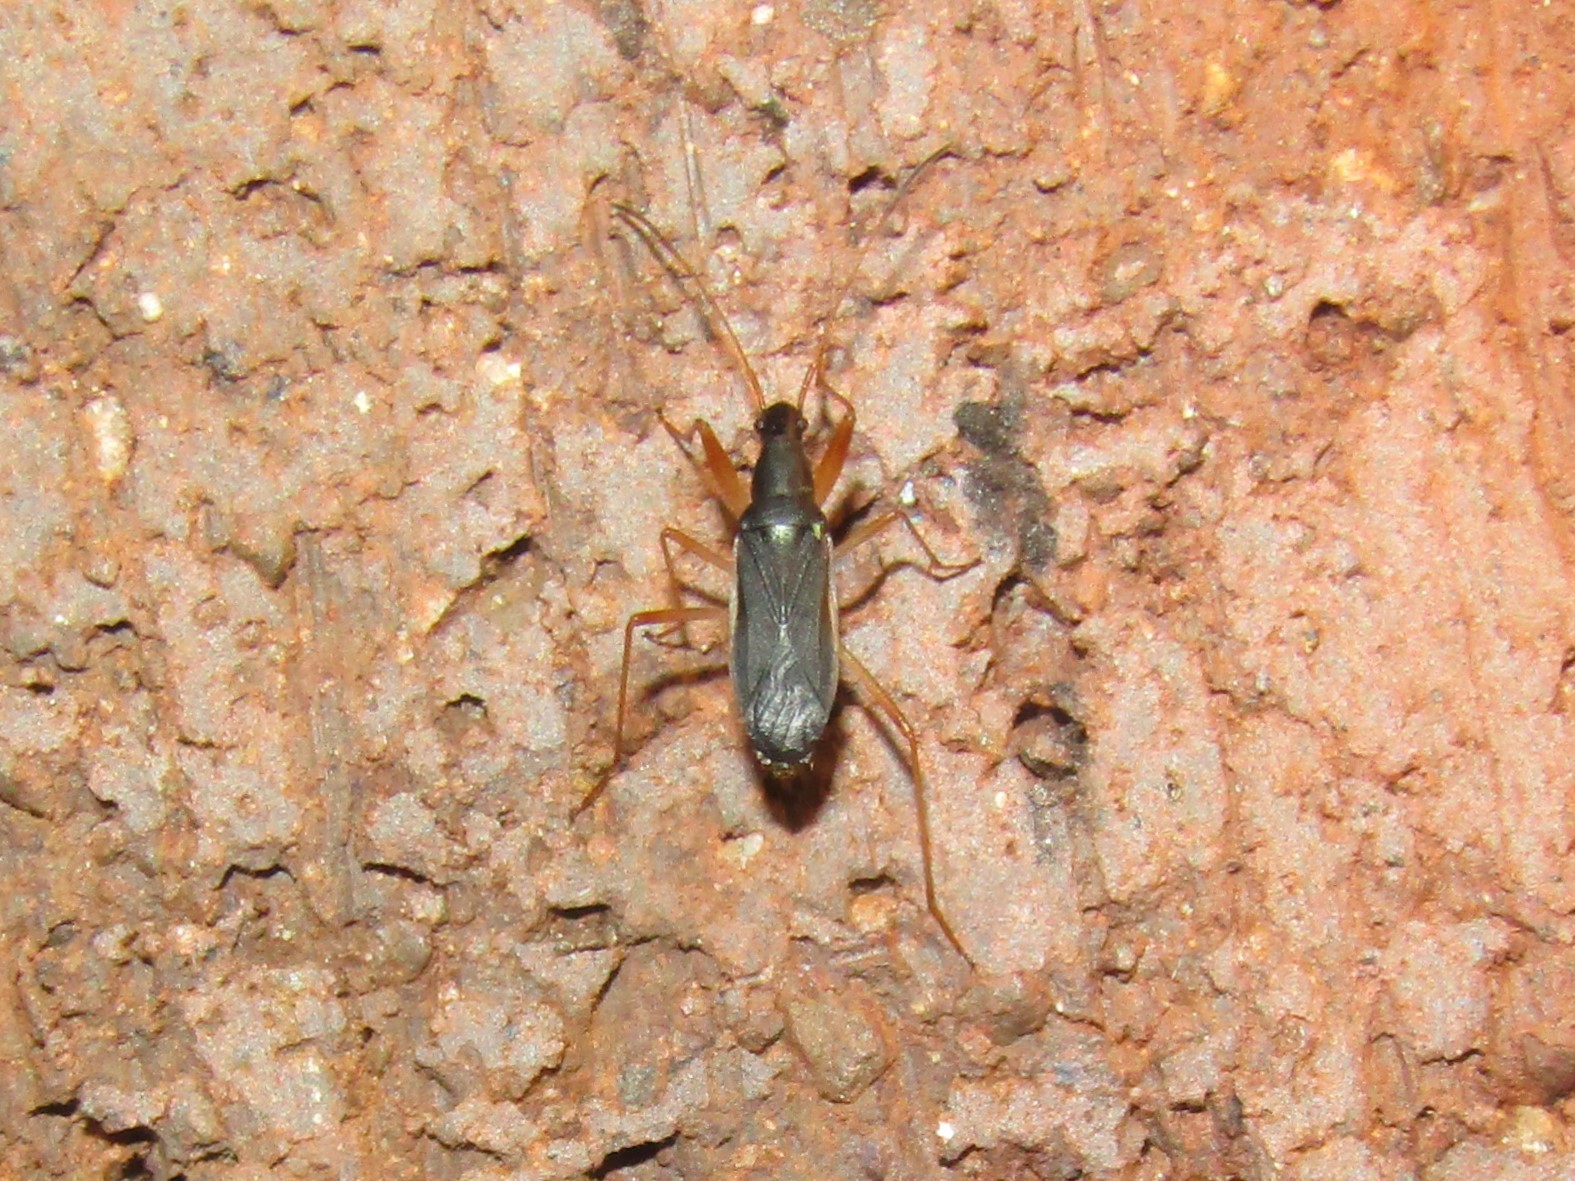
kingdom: Animalia
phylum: Arthropoda
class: Insecta
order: Hemiptera
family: Rhyparochromidae
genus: Cnemodus
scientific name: Cnemodus mavortius
